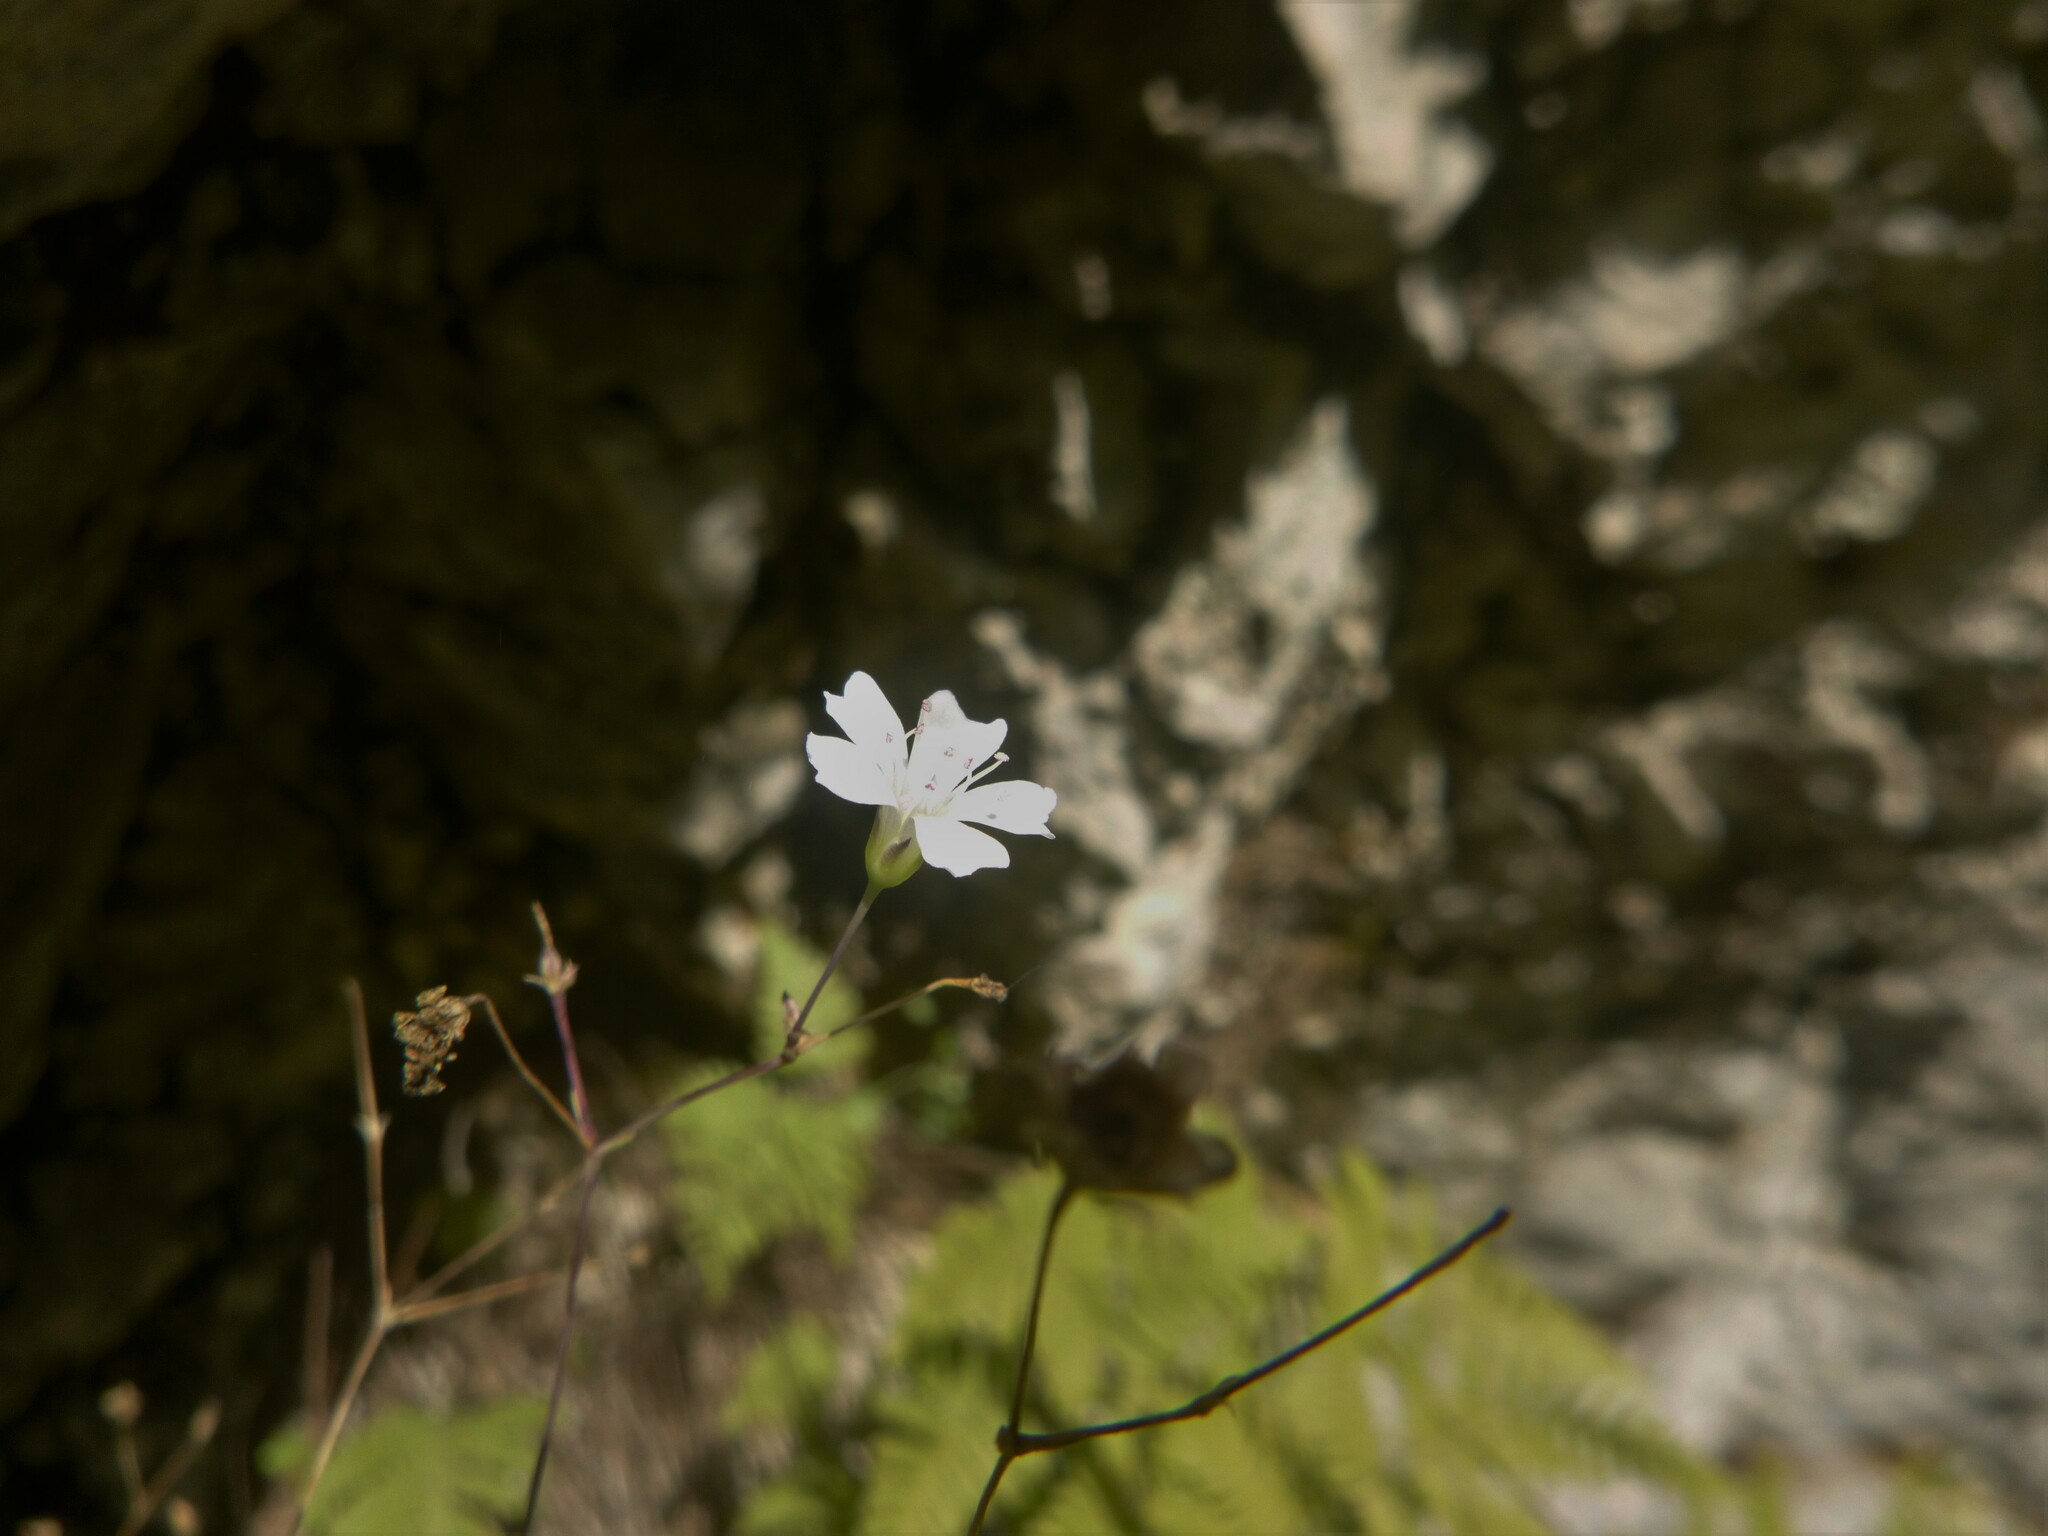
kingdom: Plantae
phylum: Tracheophyta
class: Magnoliopsida
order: Caryophyllales
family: Caryophyllaceae
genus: Gypsophila
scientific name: Gypsophila repens
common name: Creeping baby's-breath
